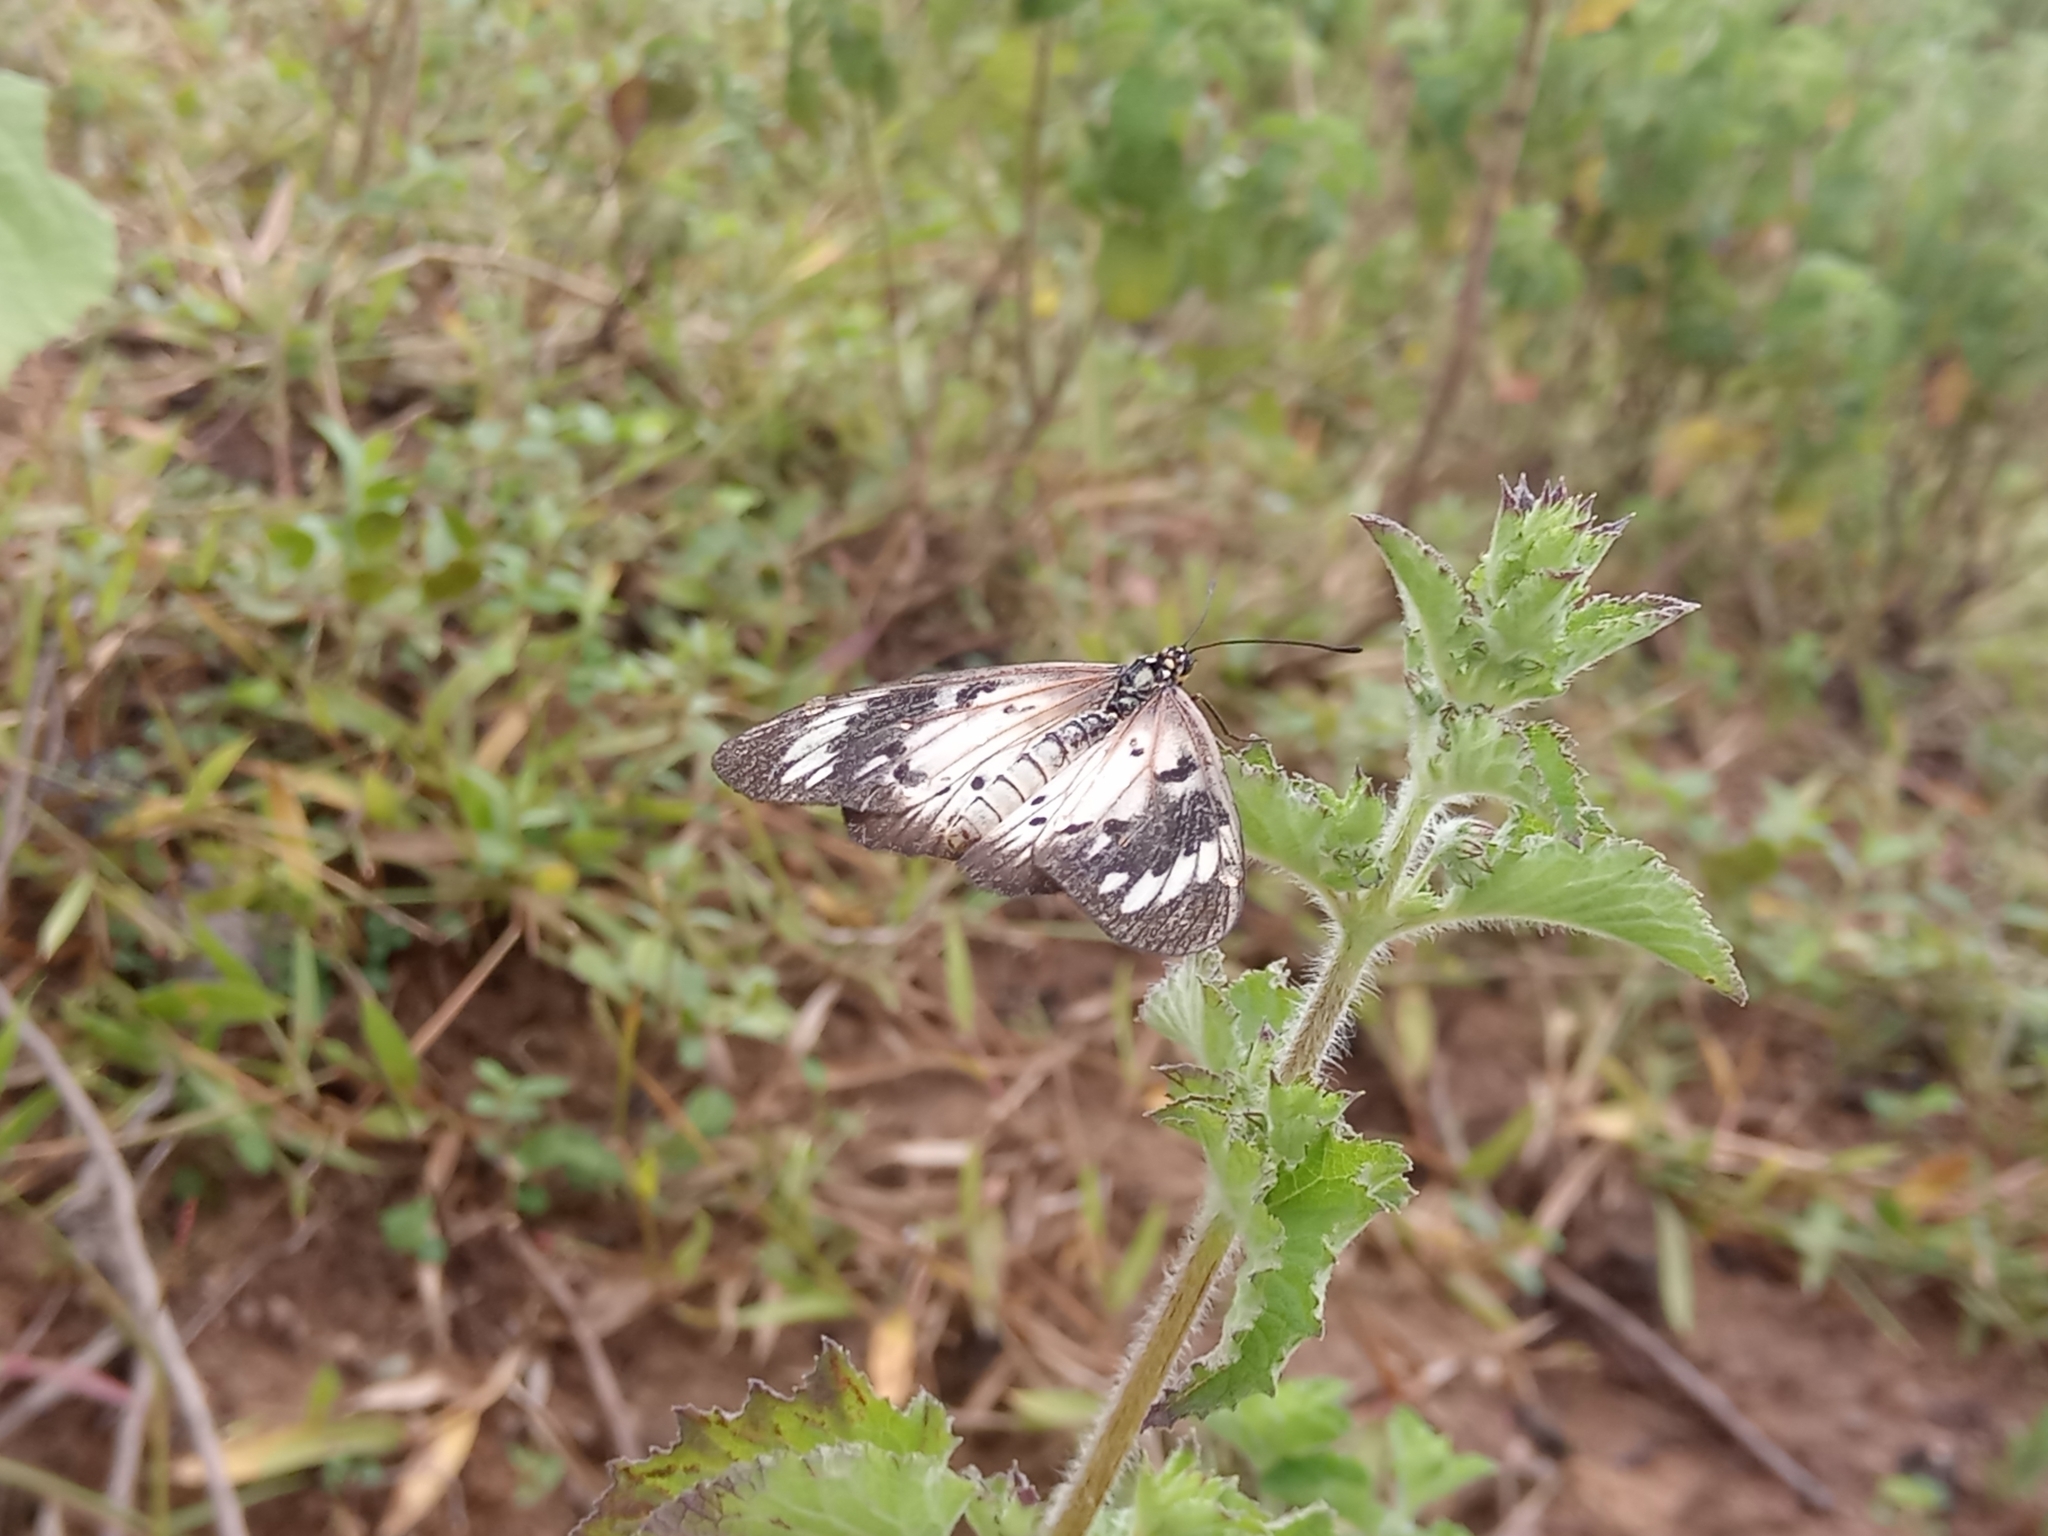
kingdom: Animalia
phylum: Arthropoda
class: Insecta
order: Lepidoptera
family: Nymphalidae
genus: Acraea
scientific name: Acraea Telchinia encedon
